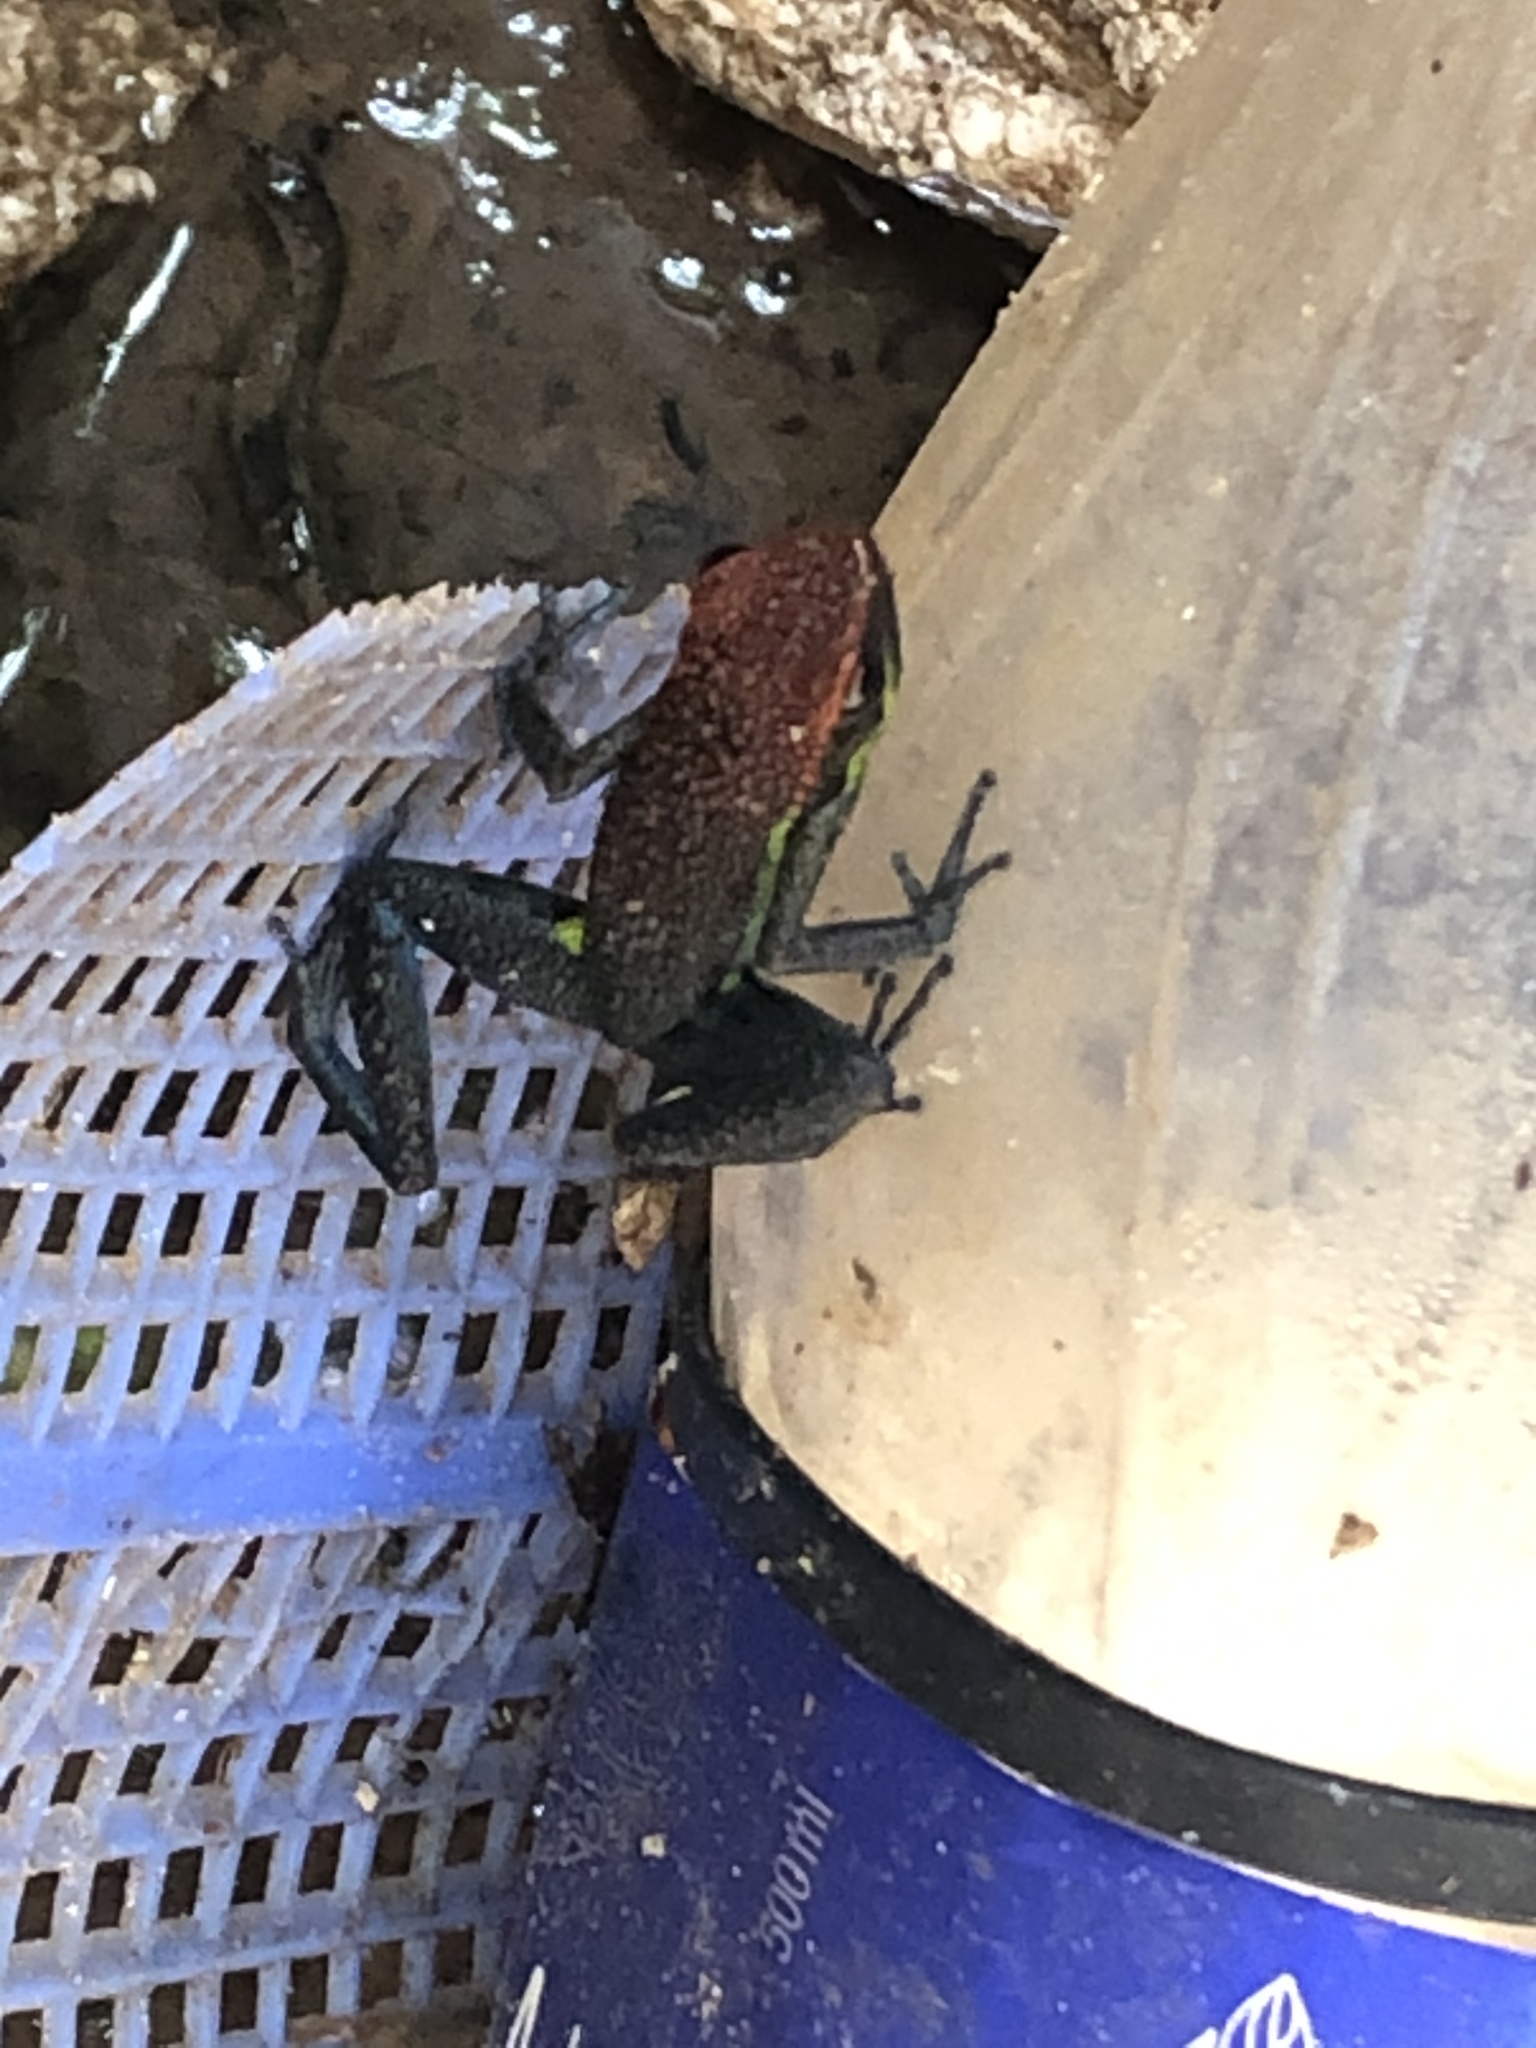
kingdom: Animalia
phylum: Chordata
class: Amphibia
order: Anura
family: Dendrobatidae
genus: Ameerega
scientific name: Ameerega macero
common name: Manu poison frog
